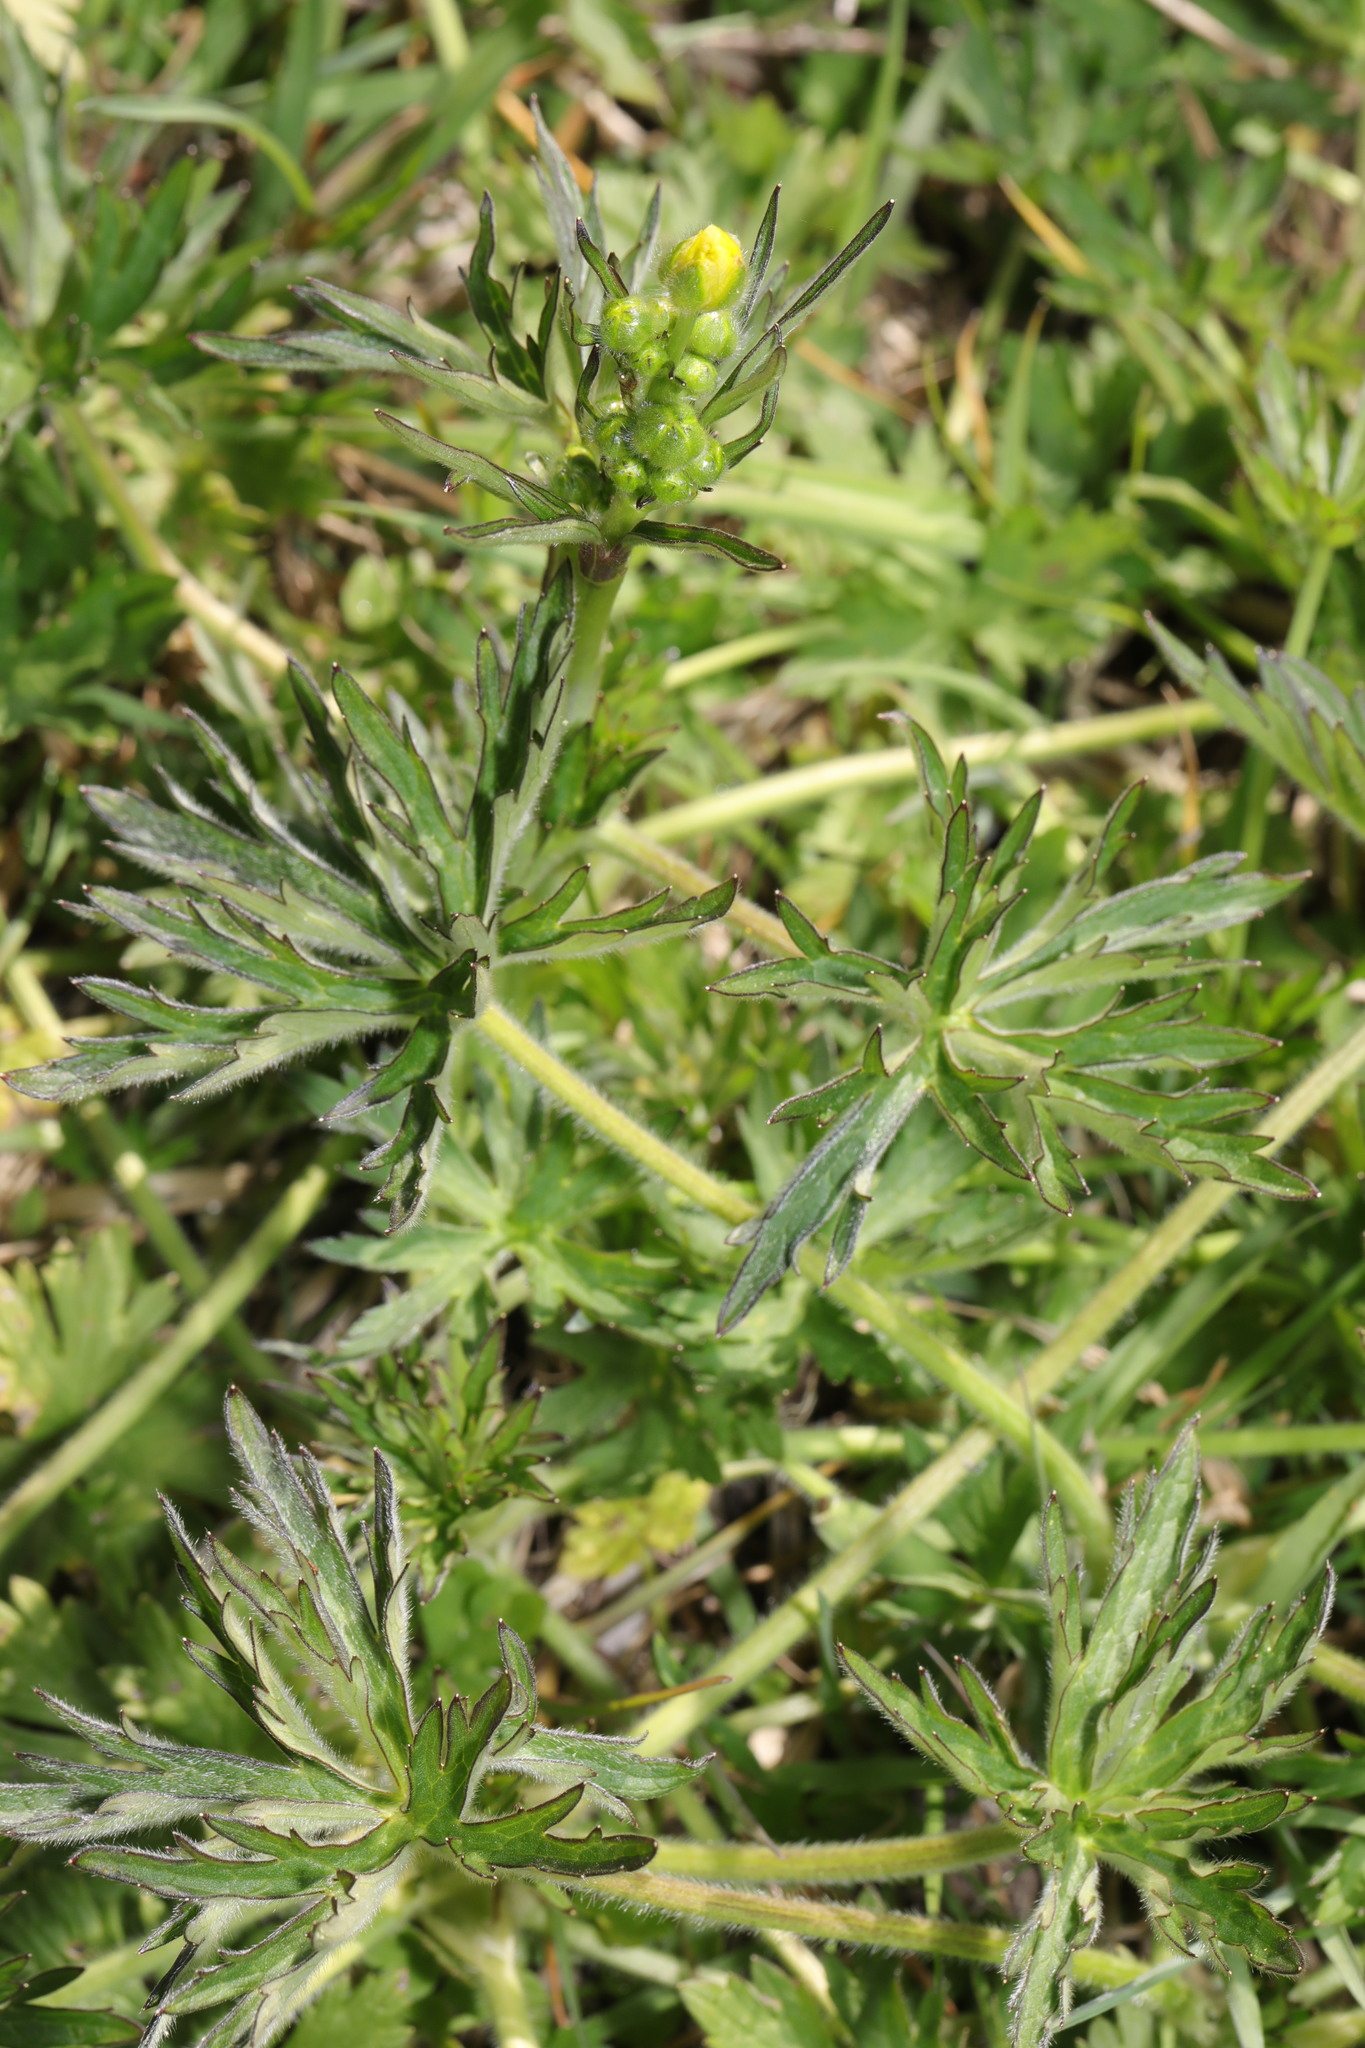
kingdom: Plantae
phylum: Tracheophyta
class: Magnoliopsida
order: Ranunculales
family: Ranunculaceae
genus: Ranunculus
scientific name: Ranunculus acris
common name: Meadow buttercup
